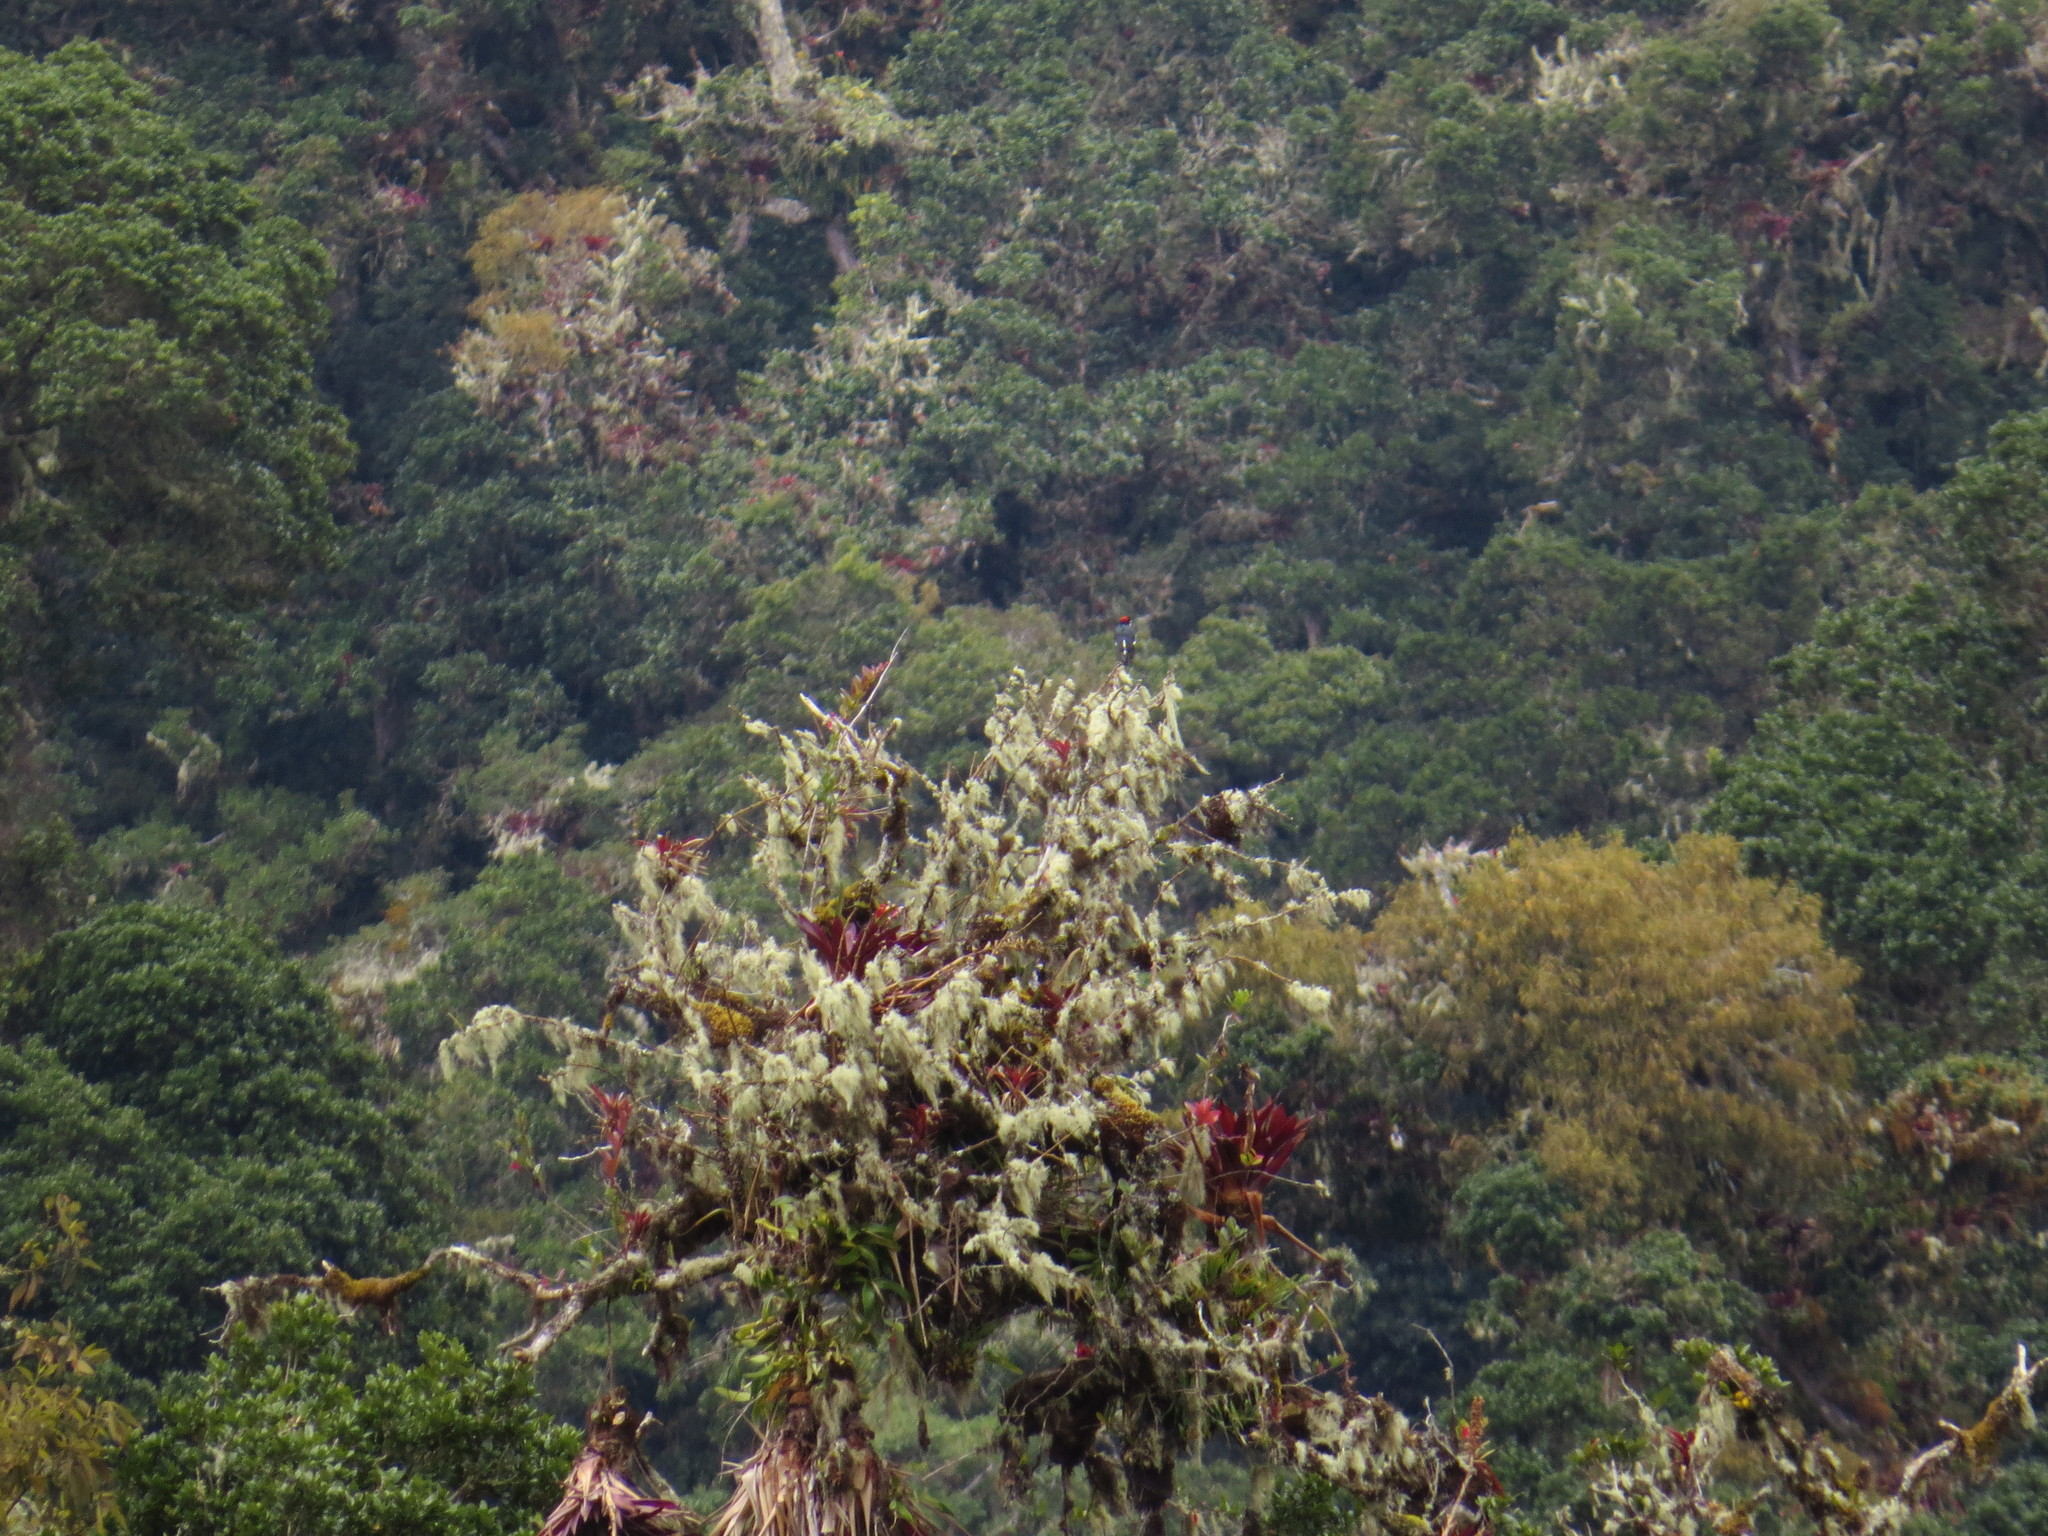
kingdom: Animalia
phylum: Chordata
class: Aves
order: Piciformes
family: Picidae
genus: Melanerpes
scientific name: Melanerpes formicivorus
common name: Acorn woodpecker
